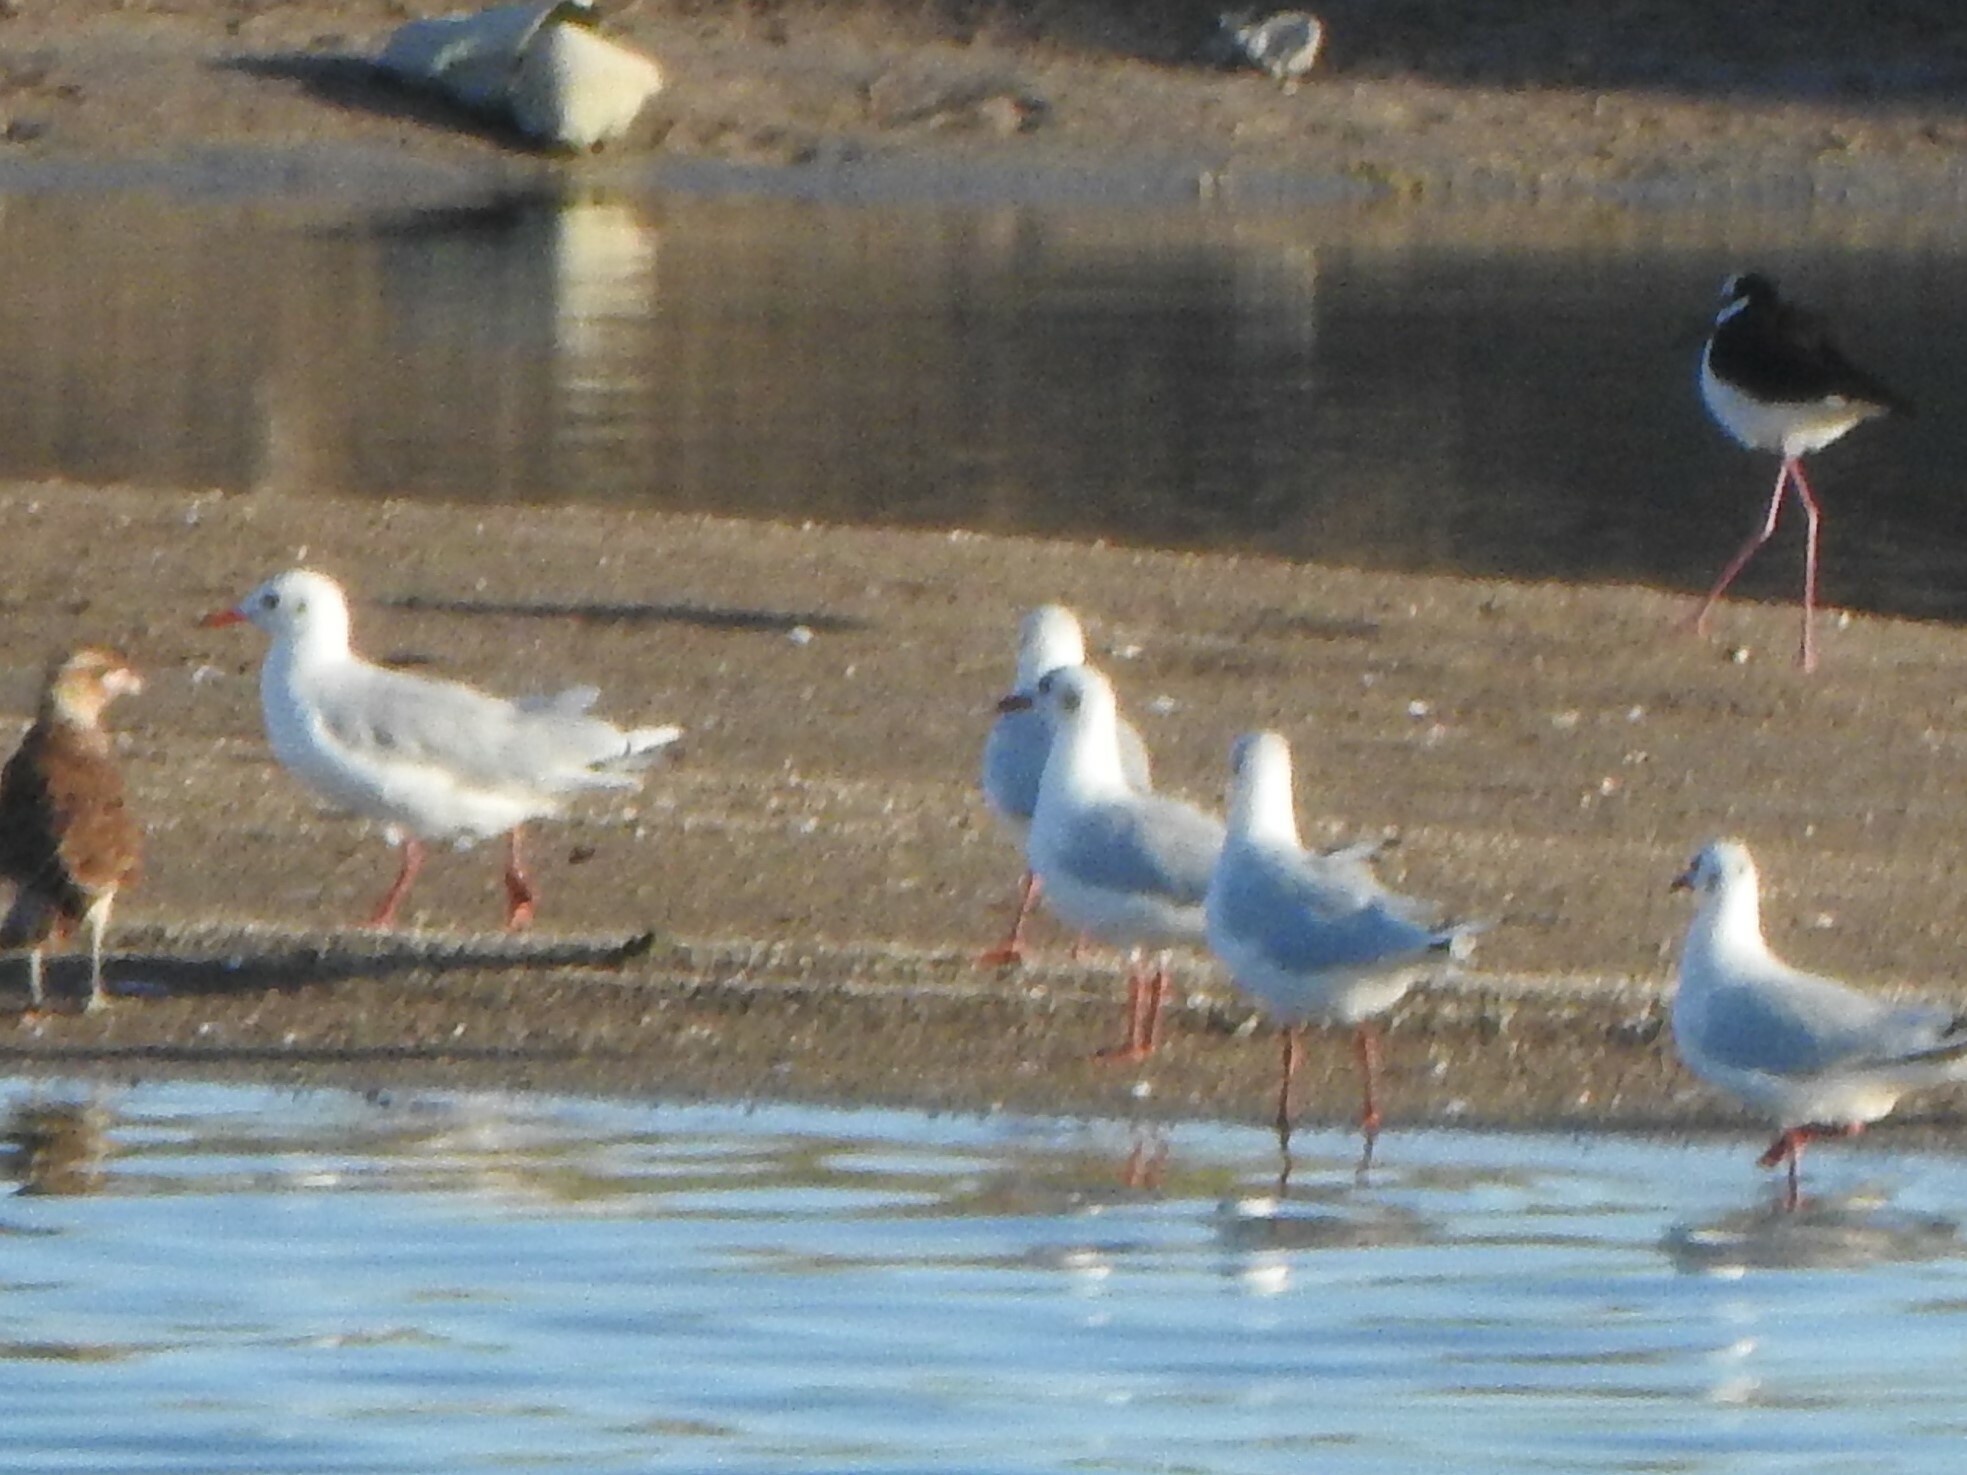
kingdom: Animalia
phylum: Chordata
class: Aves
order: Charadriiformes
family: Laridae
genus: Chroicocephalus
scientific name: Chroicocephalus maculipennis
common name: Brown-hooded gull
